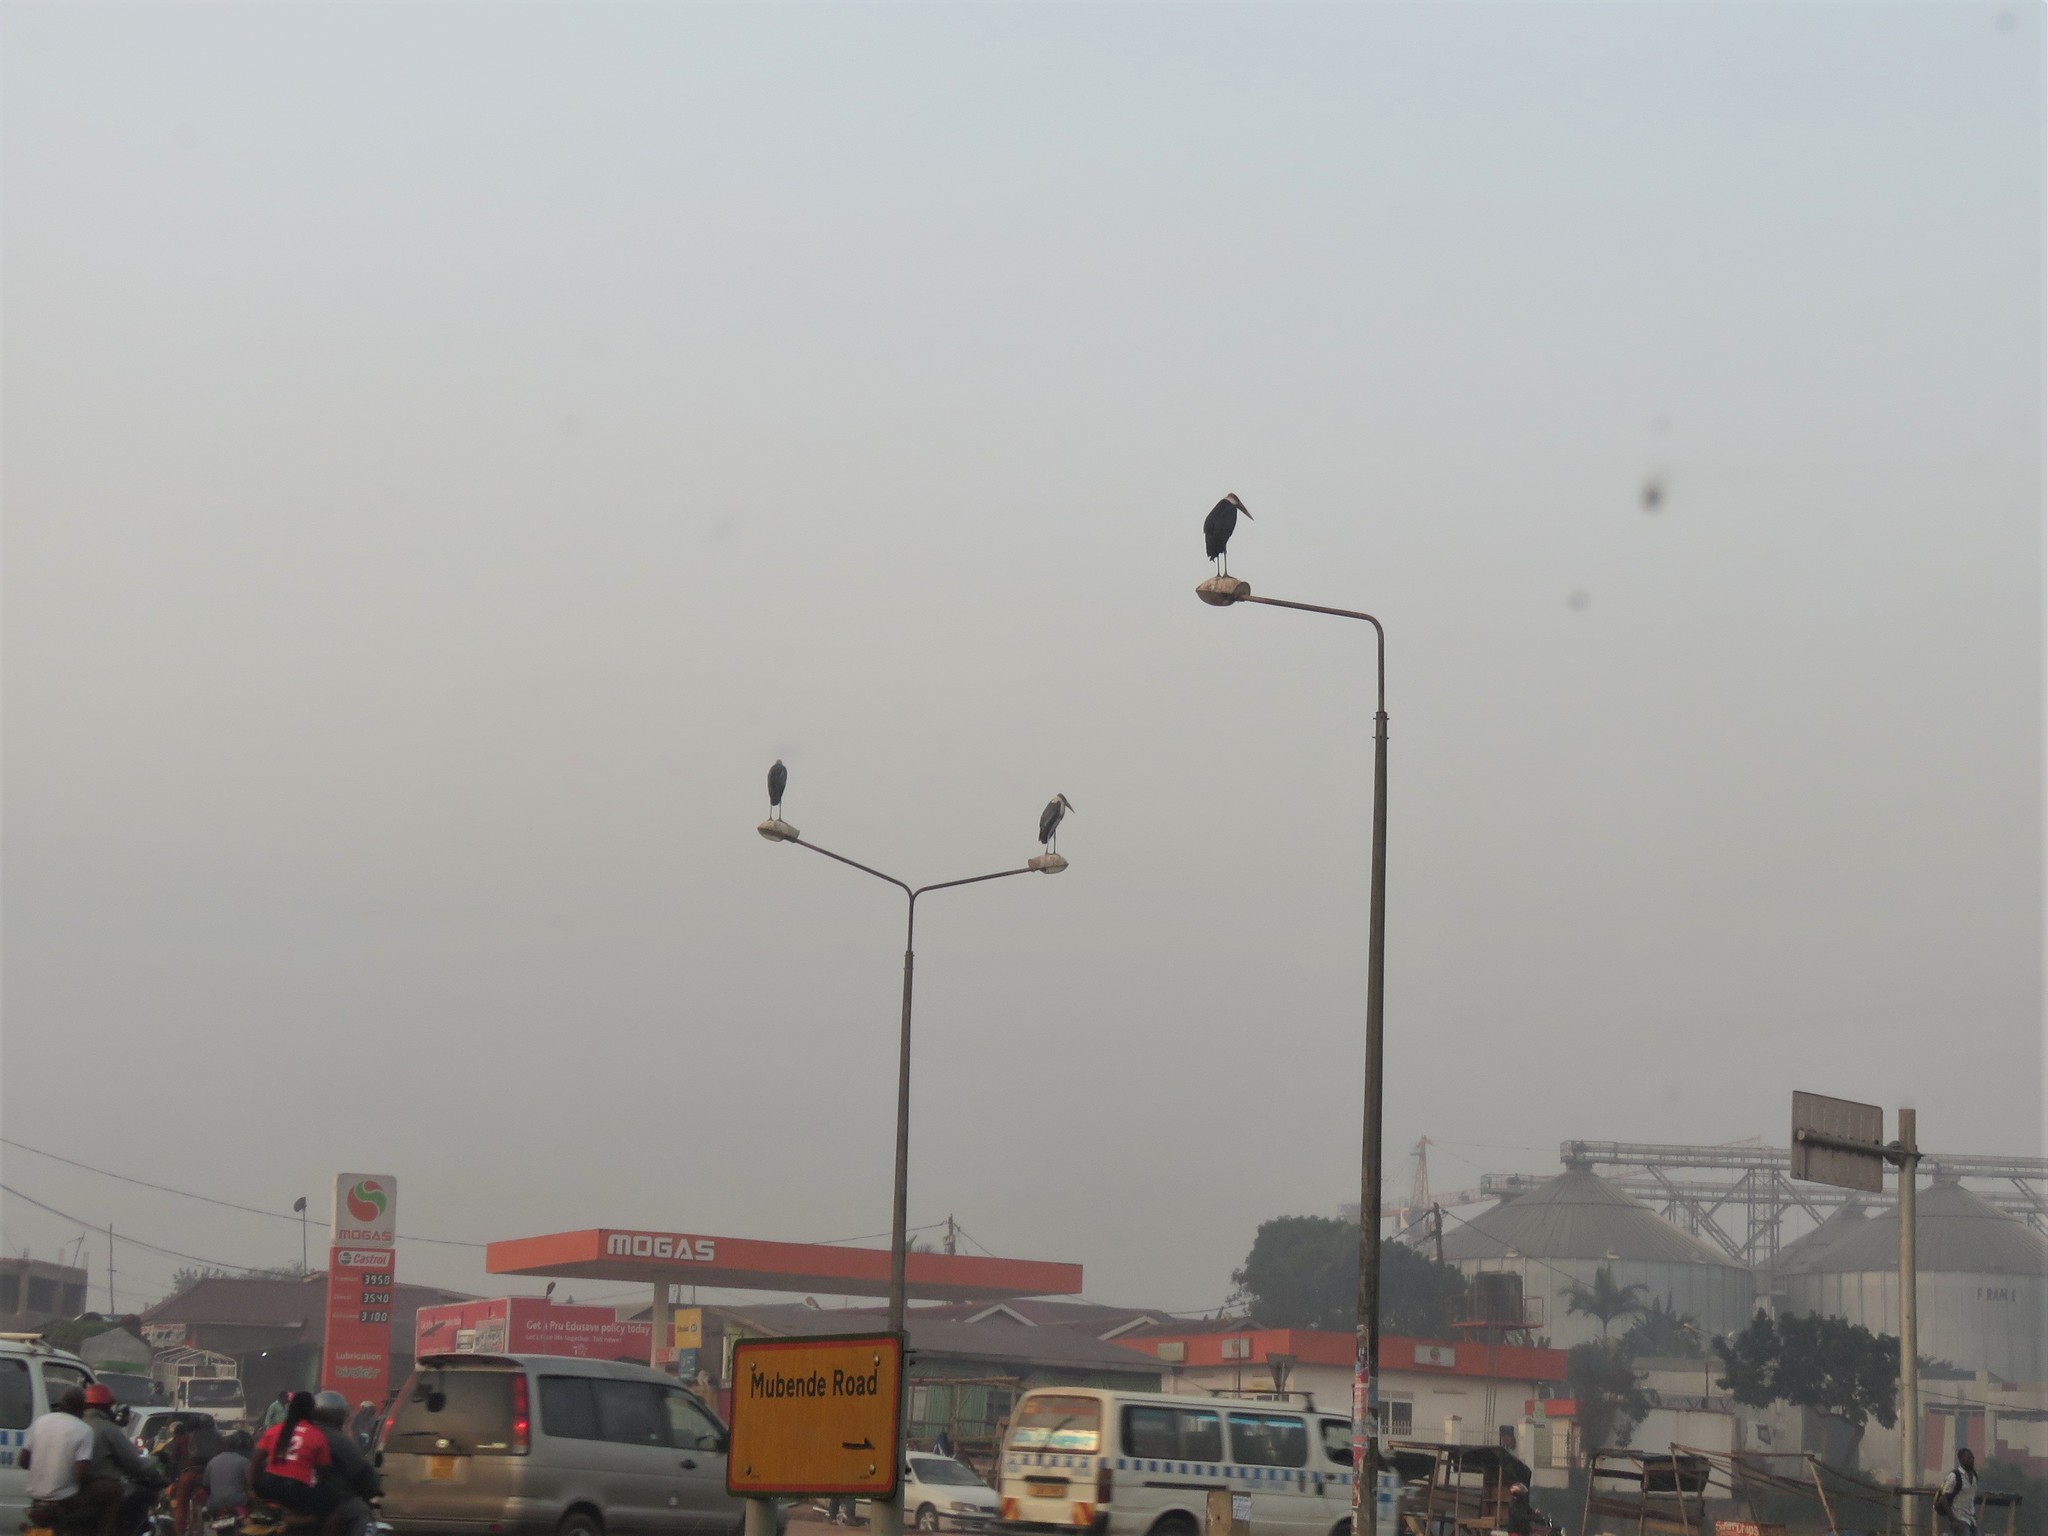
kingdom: Animalia
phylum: Chordata
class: Aves
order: Ciconiiformes
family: Ciconiidae
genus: Leptoptilos
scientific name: Leptoptilos crumenifer
